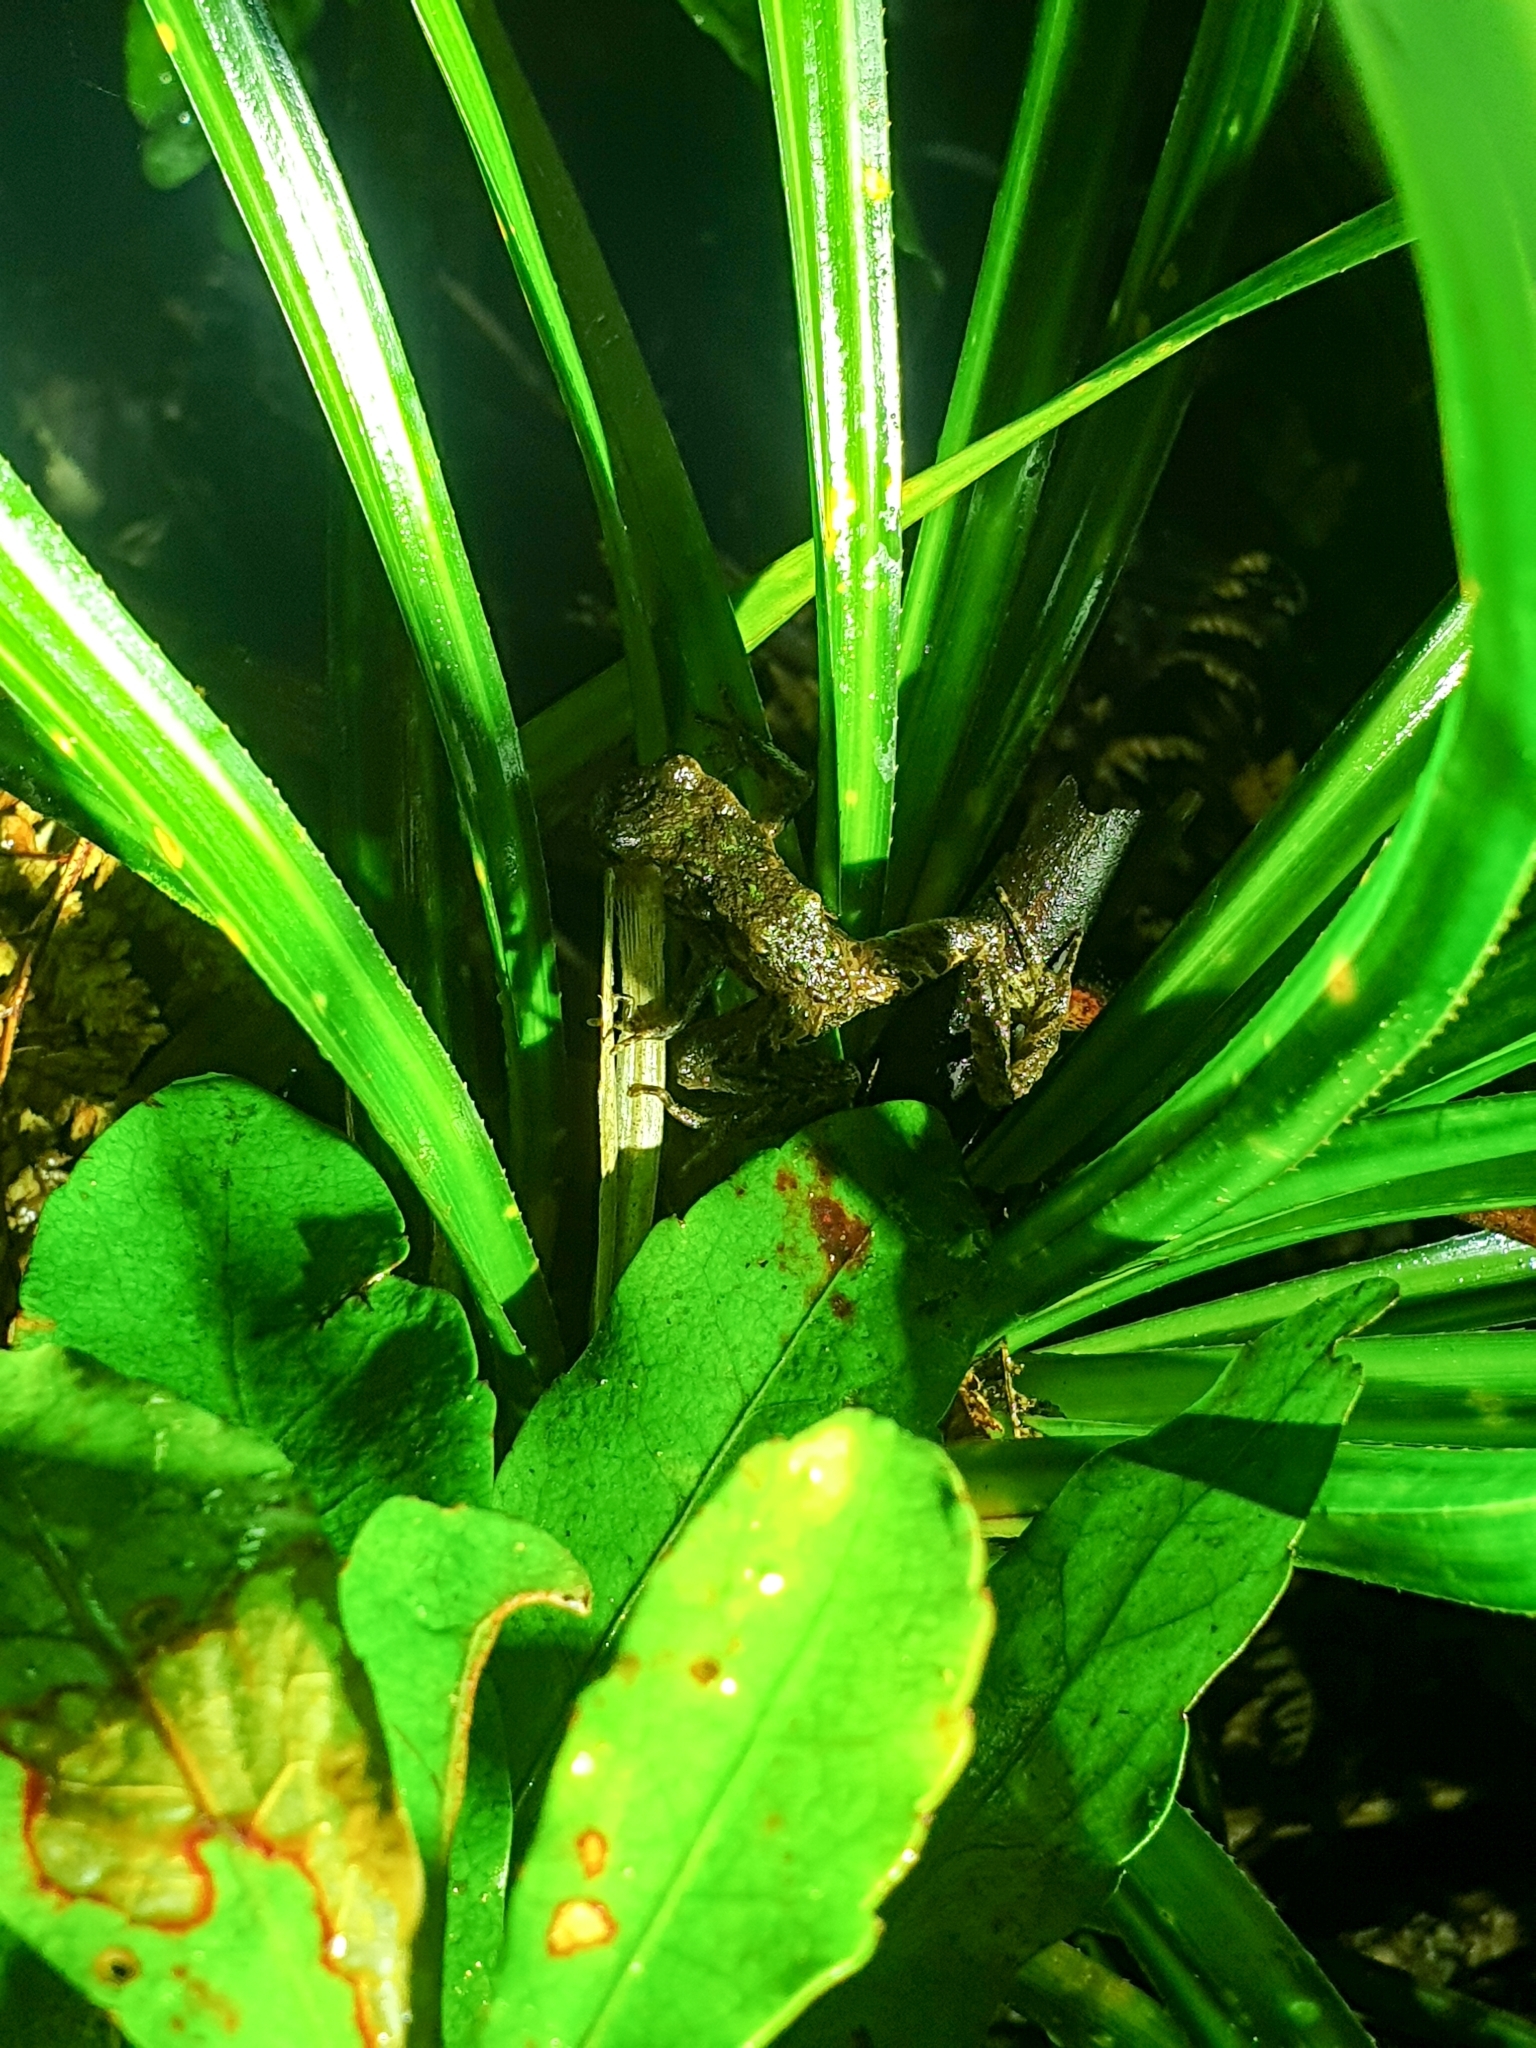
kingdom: Animalia
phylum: Chordata
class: Amphibia
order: Anura
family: Leiopelmatidae
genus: Leiopelma
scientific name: Leiopelma archeyi
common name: Archey's frog
